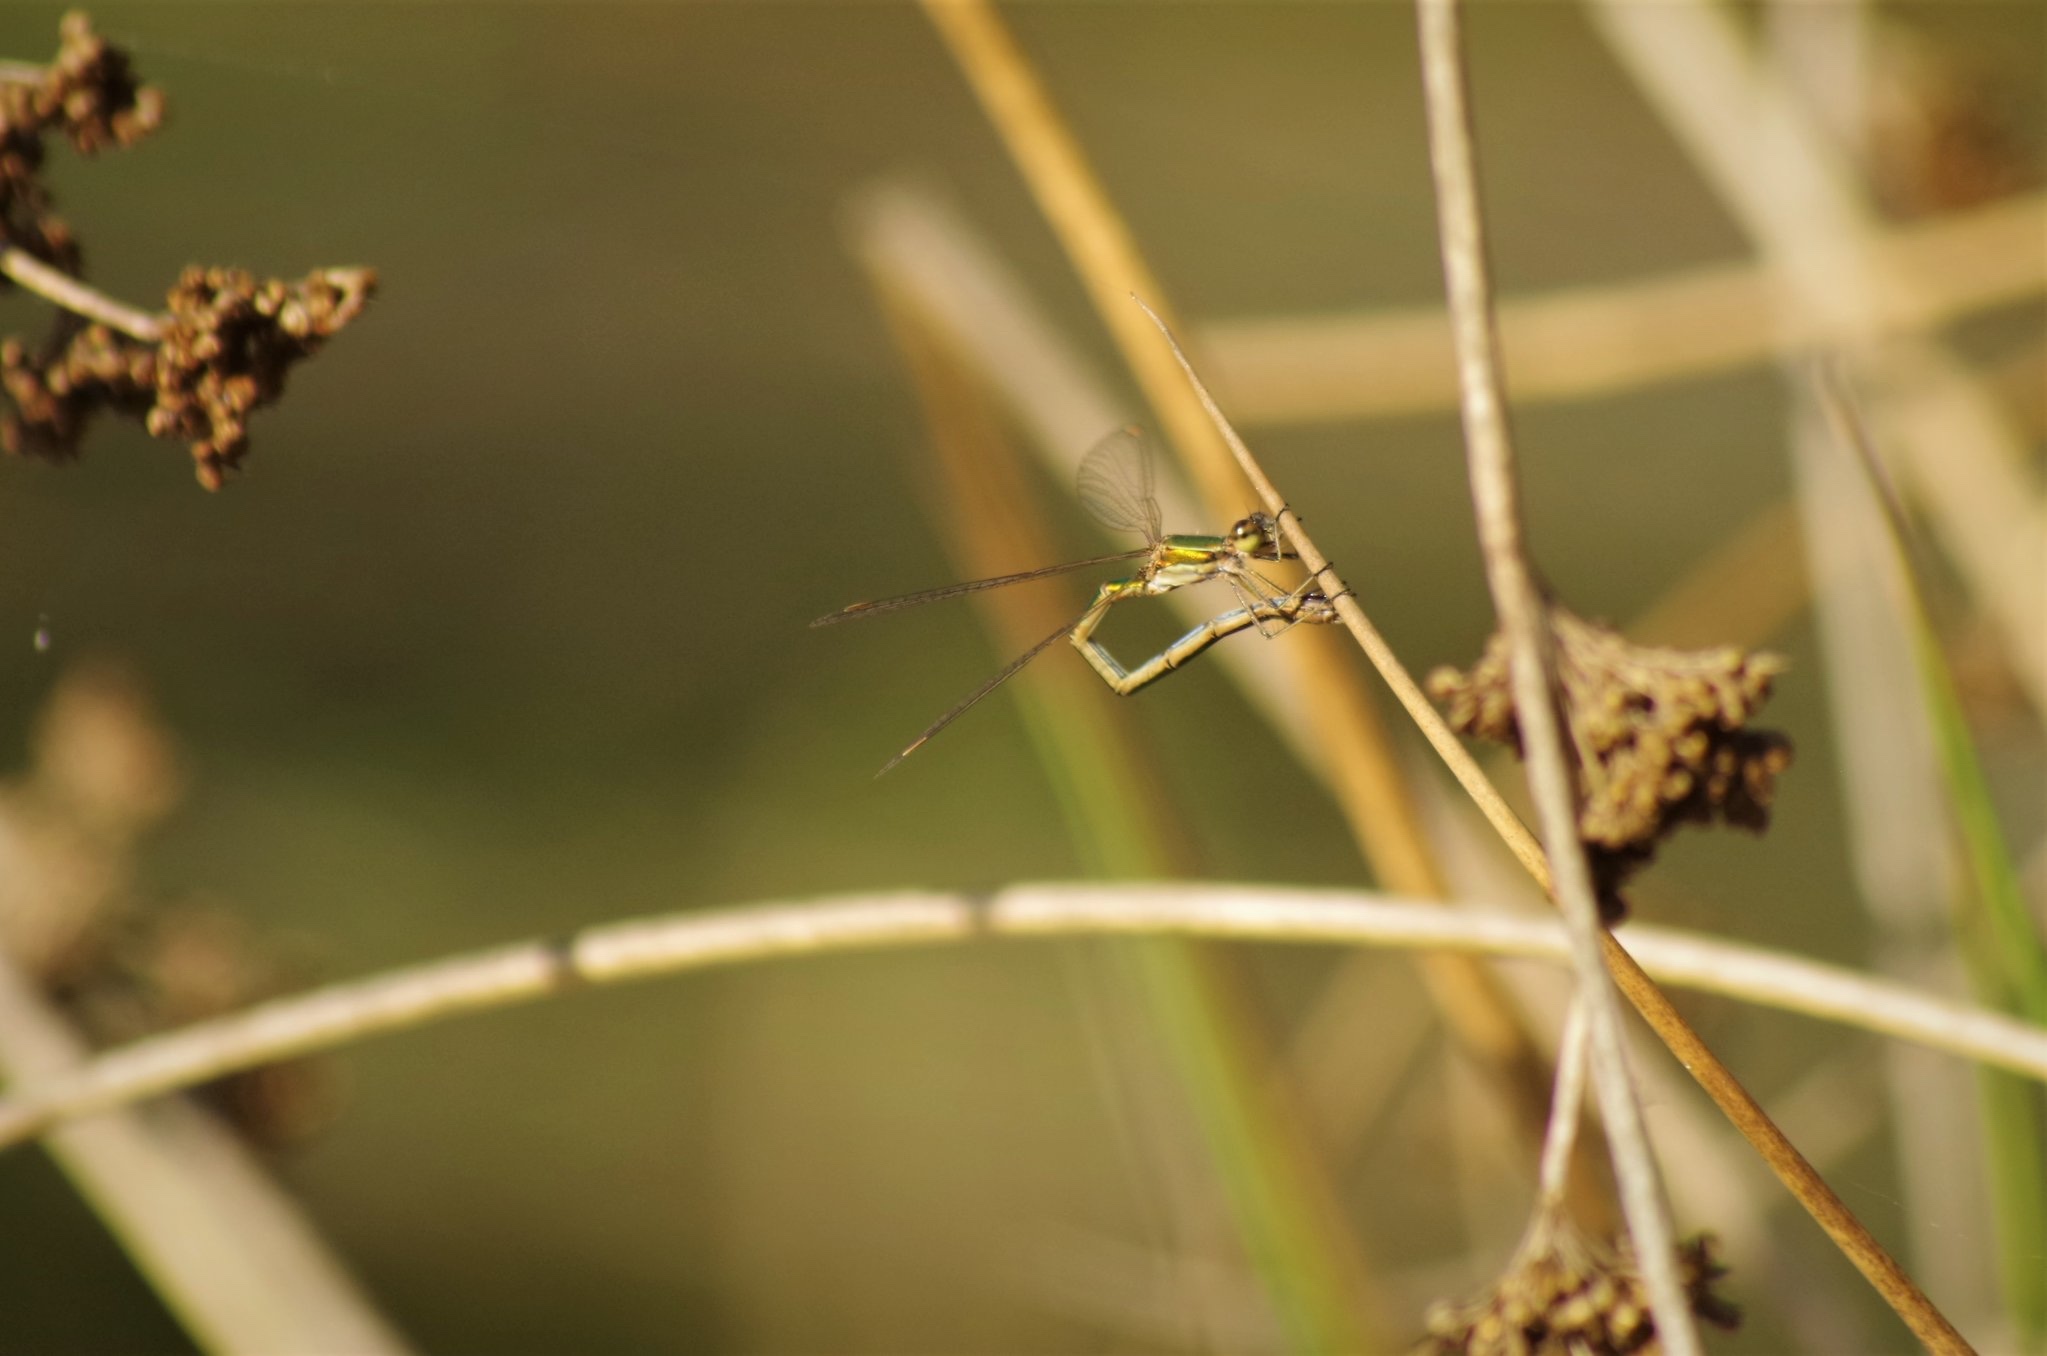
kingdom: Animalia
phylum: Arthropoda
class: Insecta
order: Odonata
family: Lestidae
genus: Lestes
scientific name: Lestes virens
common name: Small emerald spreadwing
